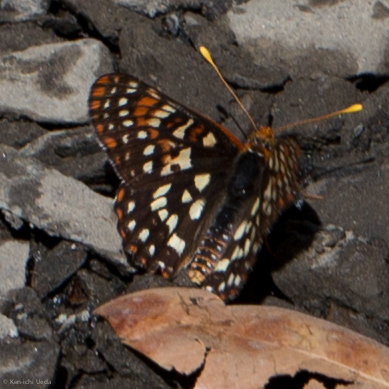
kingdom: Animalia
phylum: Arthropoda
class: Insecta
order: Lepidoptera
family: Nymphalidae
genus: Occidryas
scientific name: Occidryas chalcedona
